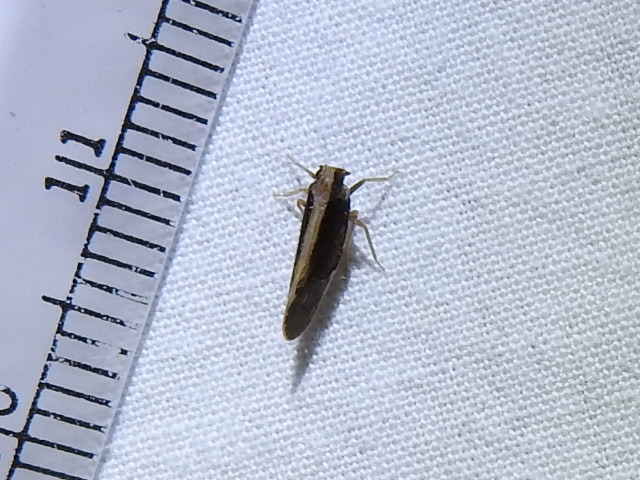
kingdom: Animalia
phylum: Arthropoda
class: Insecta
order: Hemiptera
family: Cixiidae
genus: Pintalia
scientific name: Pintalia delicata
